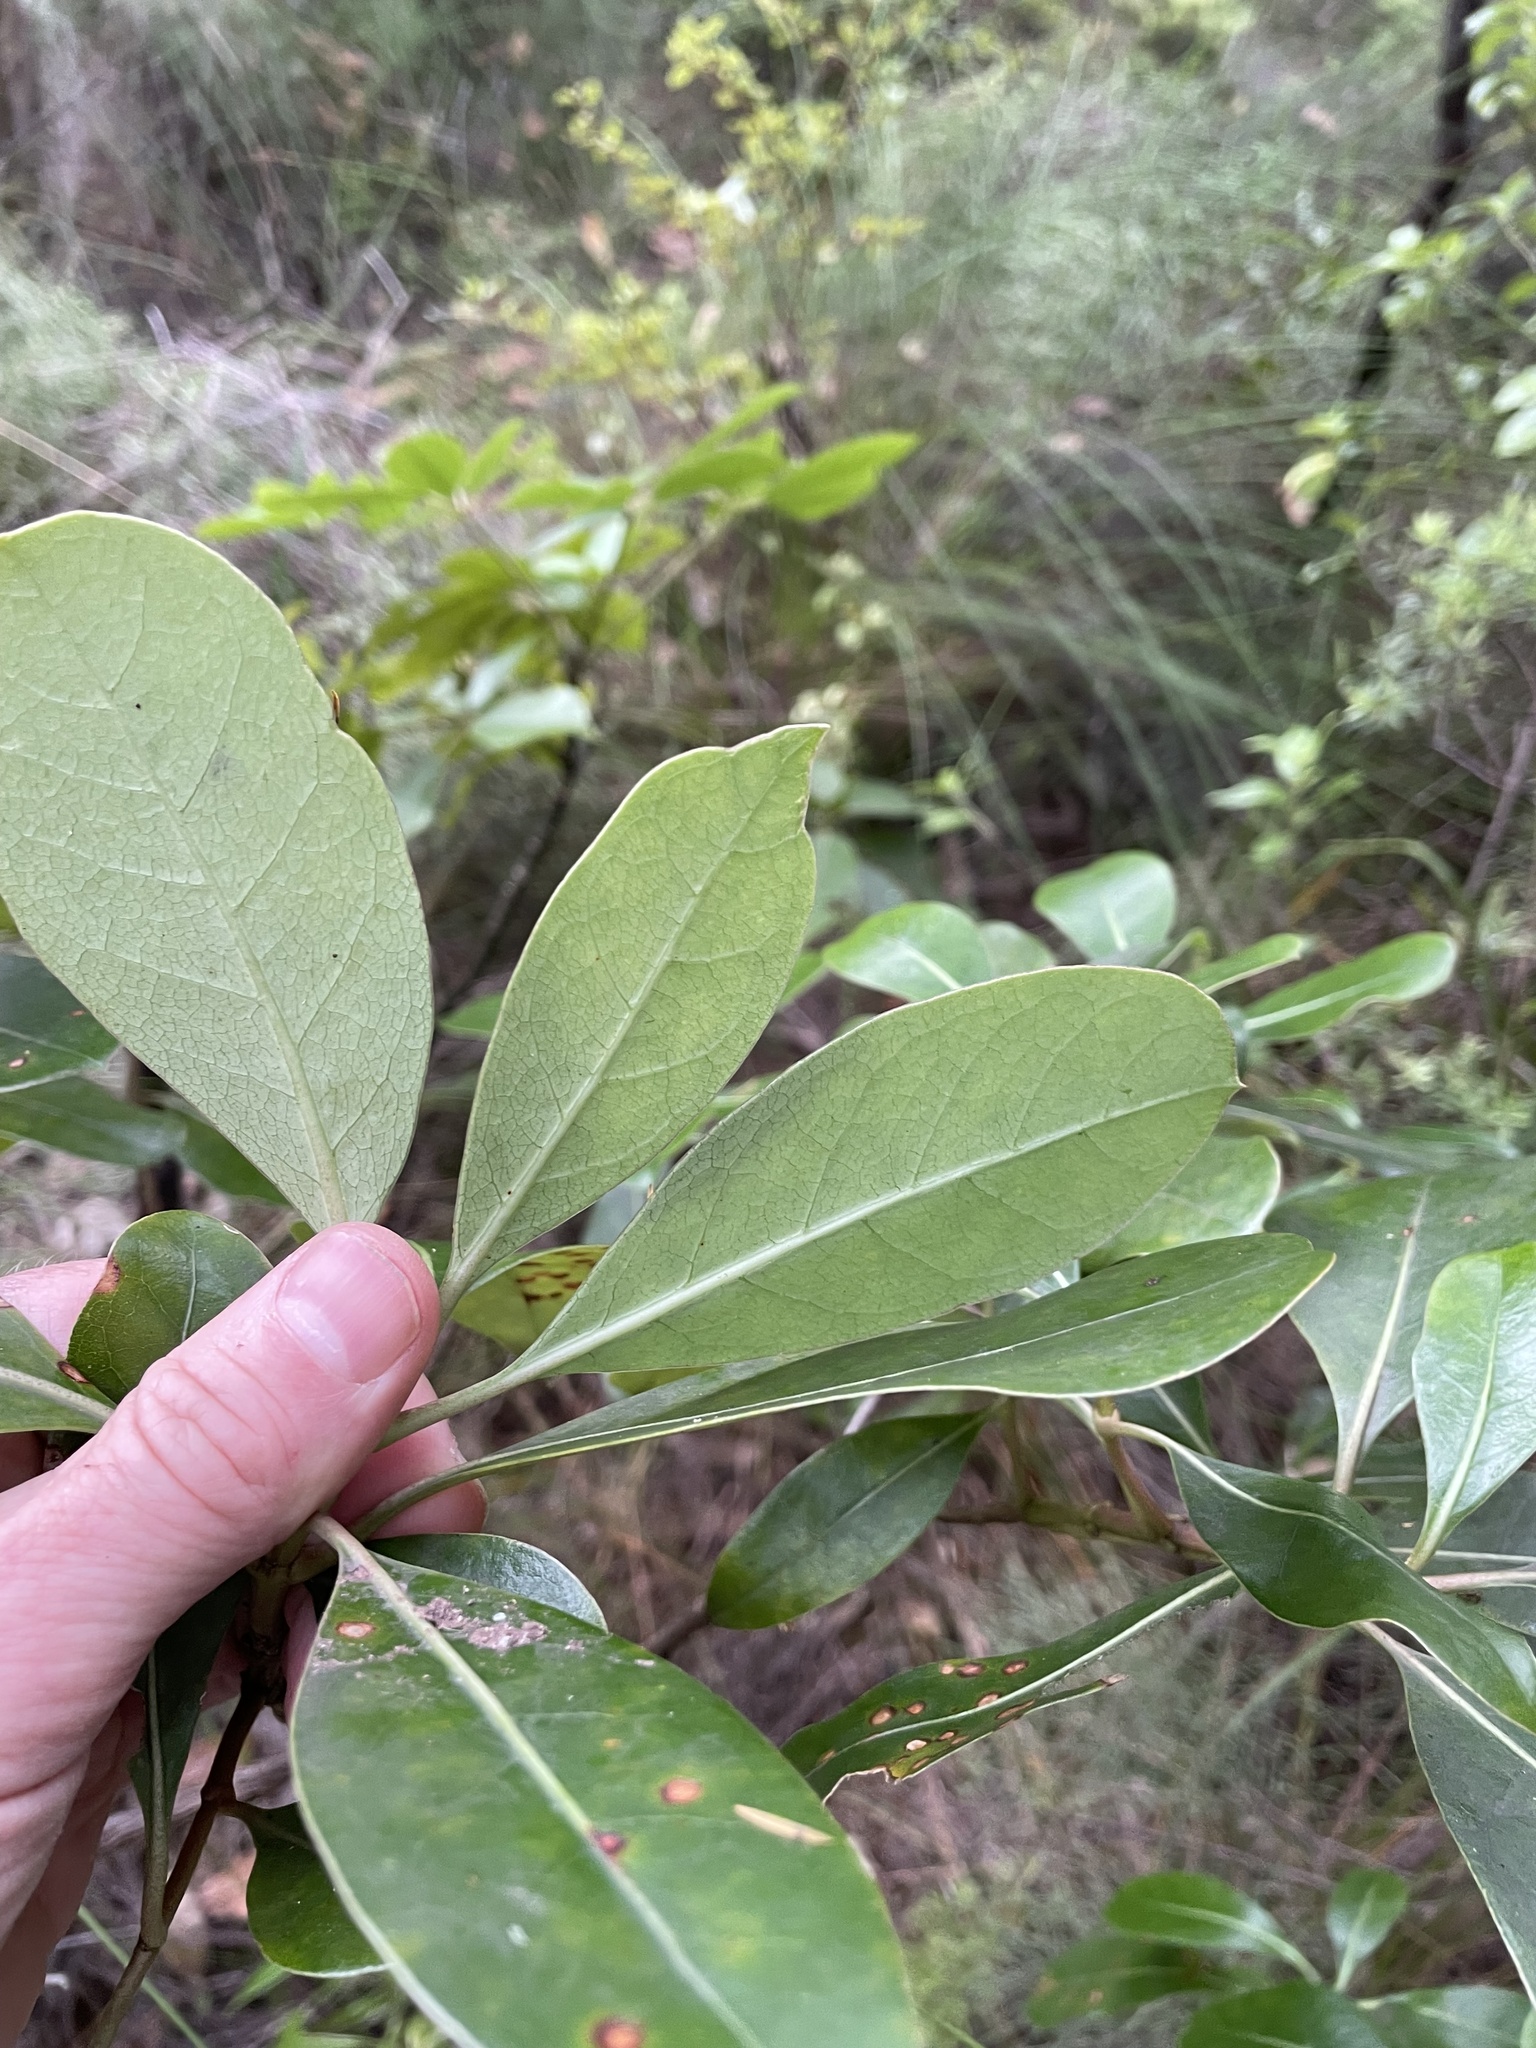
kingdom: Plantae
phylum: Tracheophyta
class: Magnoliopsida
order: Gentianales
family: Rubiaceae
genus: Coprosma
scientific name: Coprosma lucida
